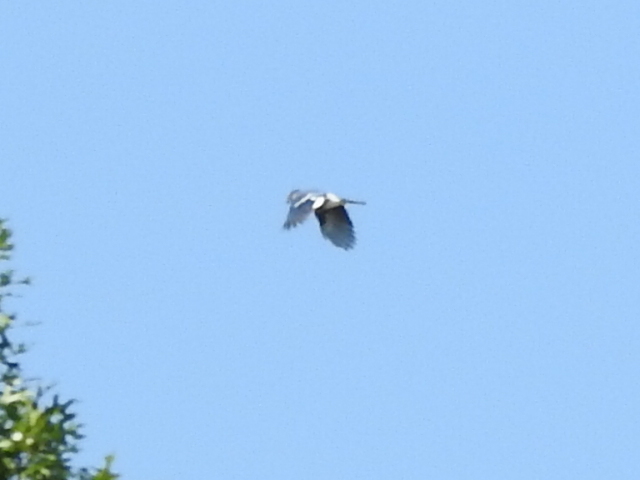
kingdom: Animalia
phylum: Chordata
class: Aves
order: Passeriformes
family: Corvidae
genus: Cyanocitta
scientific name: Cyanocitta cristata
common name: Blue jay
